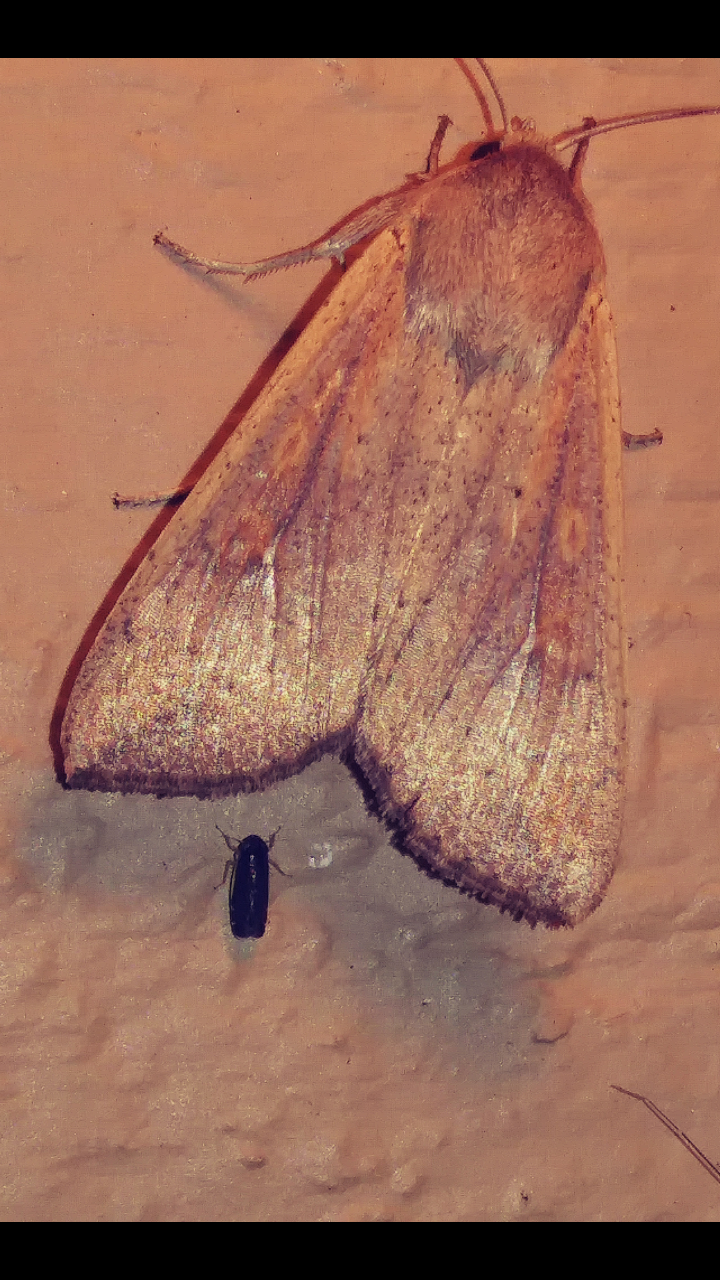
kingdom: Animalia
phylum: Arthropoda
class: Insecta
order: Lepidoptera
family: Noctuidae
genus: Mythimna
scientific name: Mythimna unipuncta
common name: White-speck
